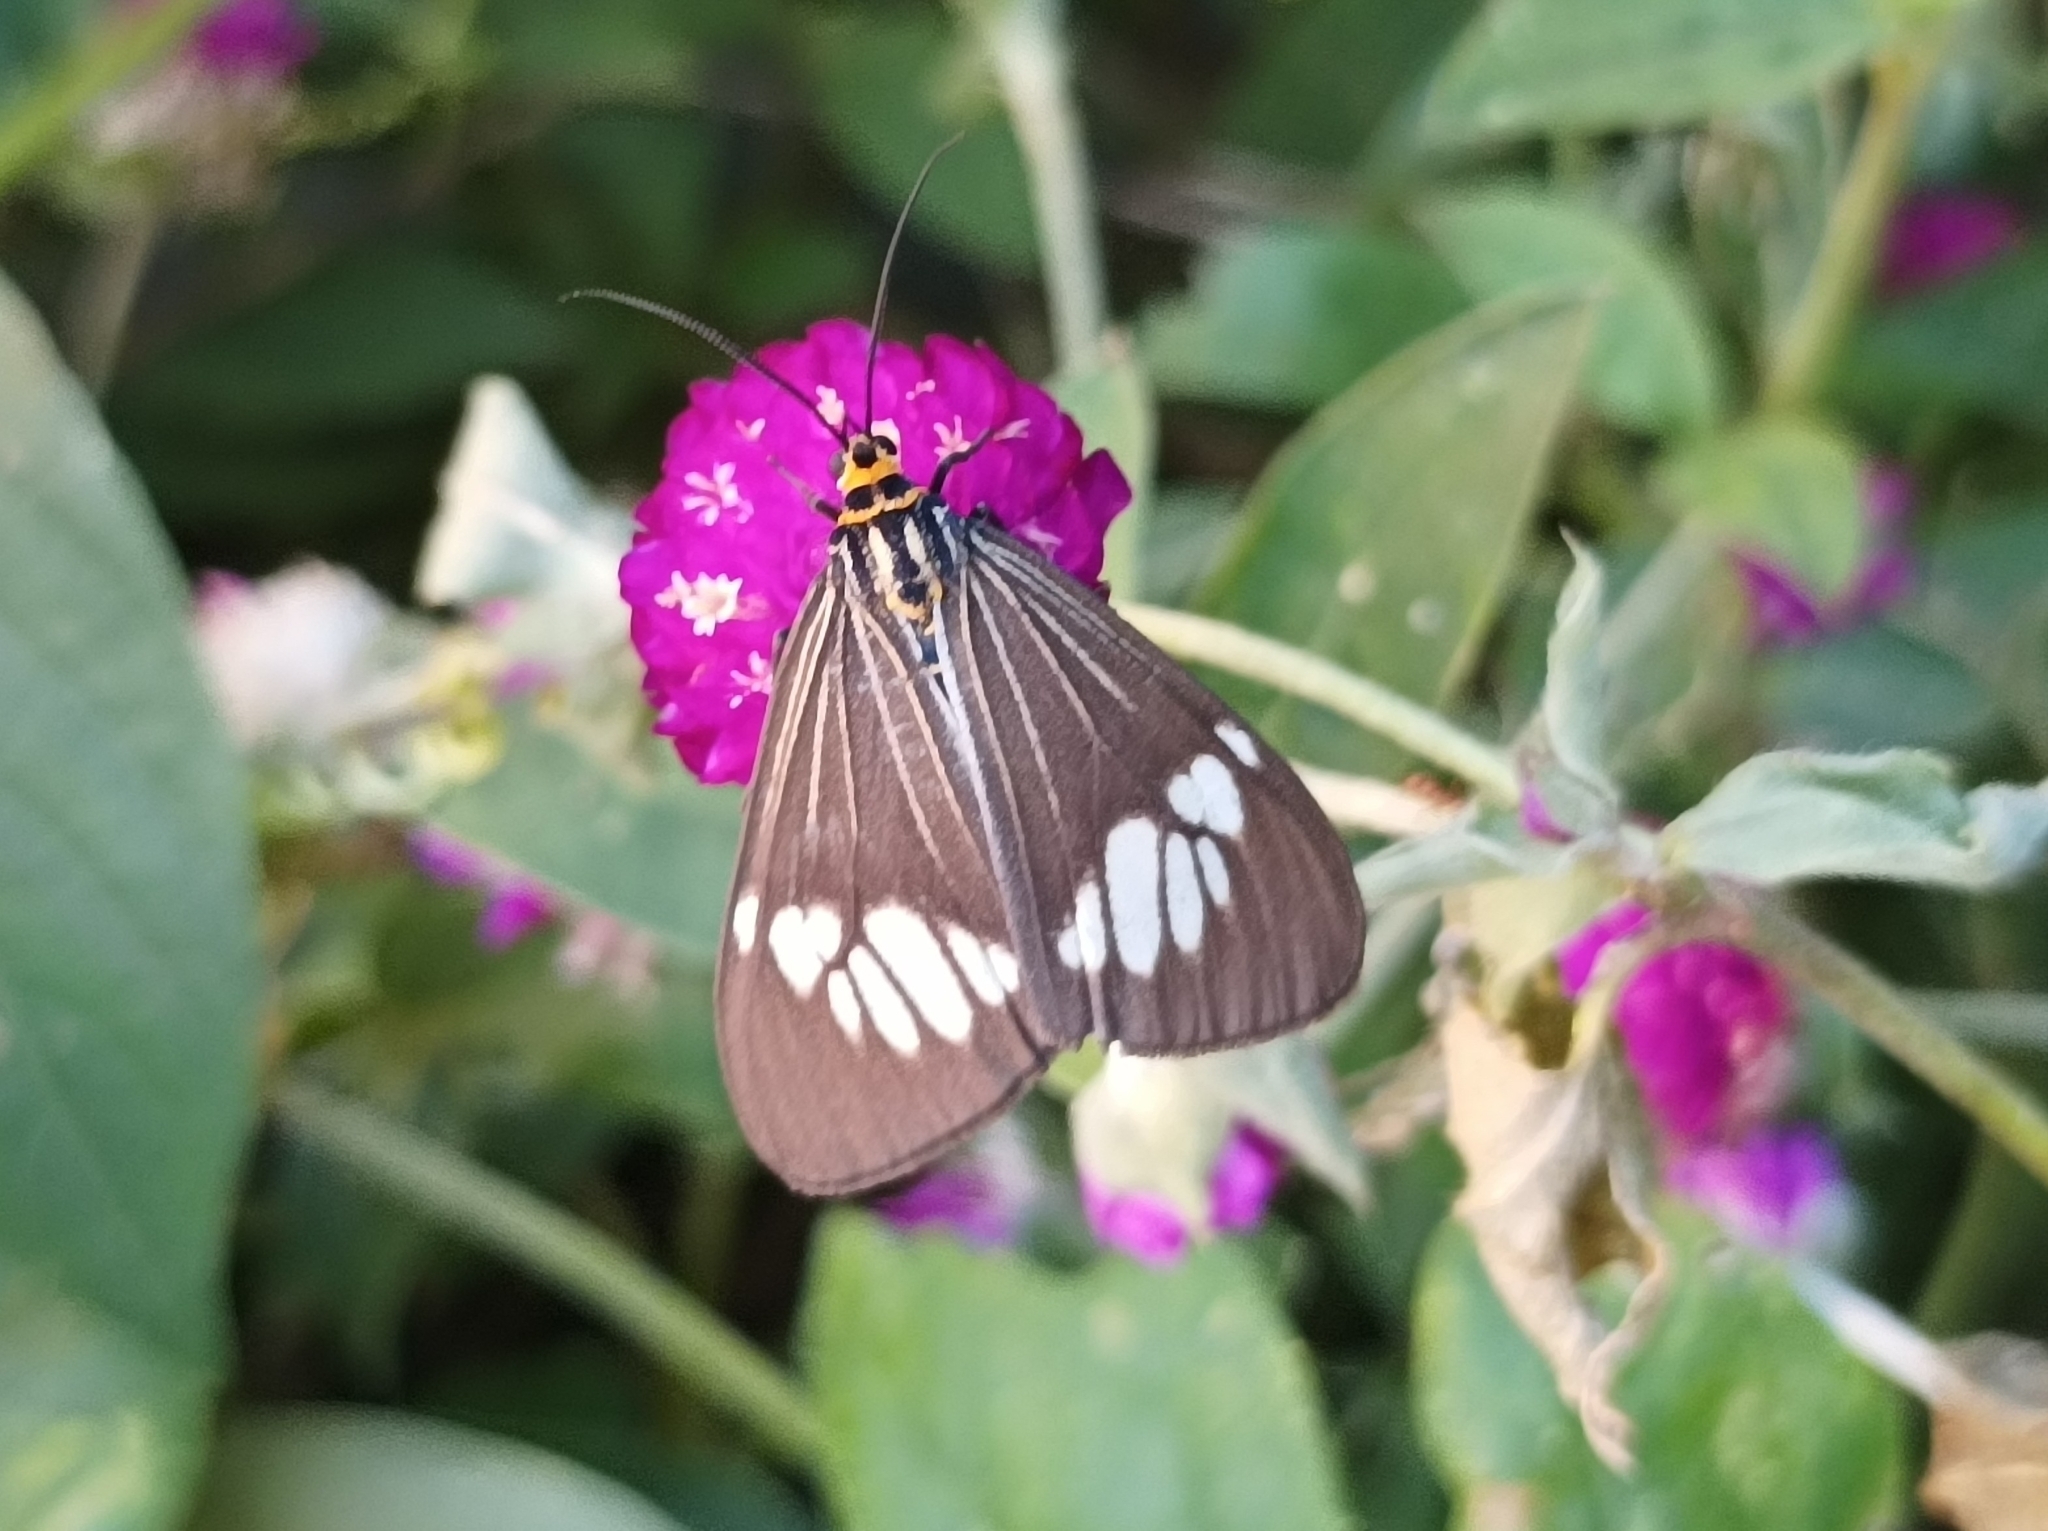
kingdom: Animalia
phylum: Arthropoda
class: Insecta
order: Lepidoptera
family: Erebidae
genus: Nyctemera
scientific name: Nyctemera baulus
